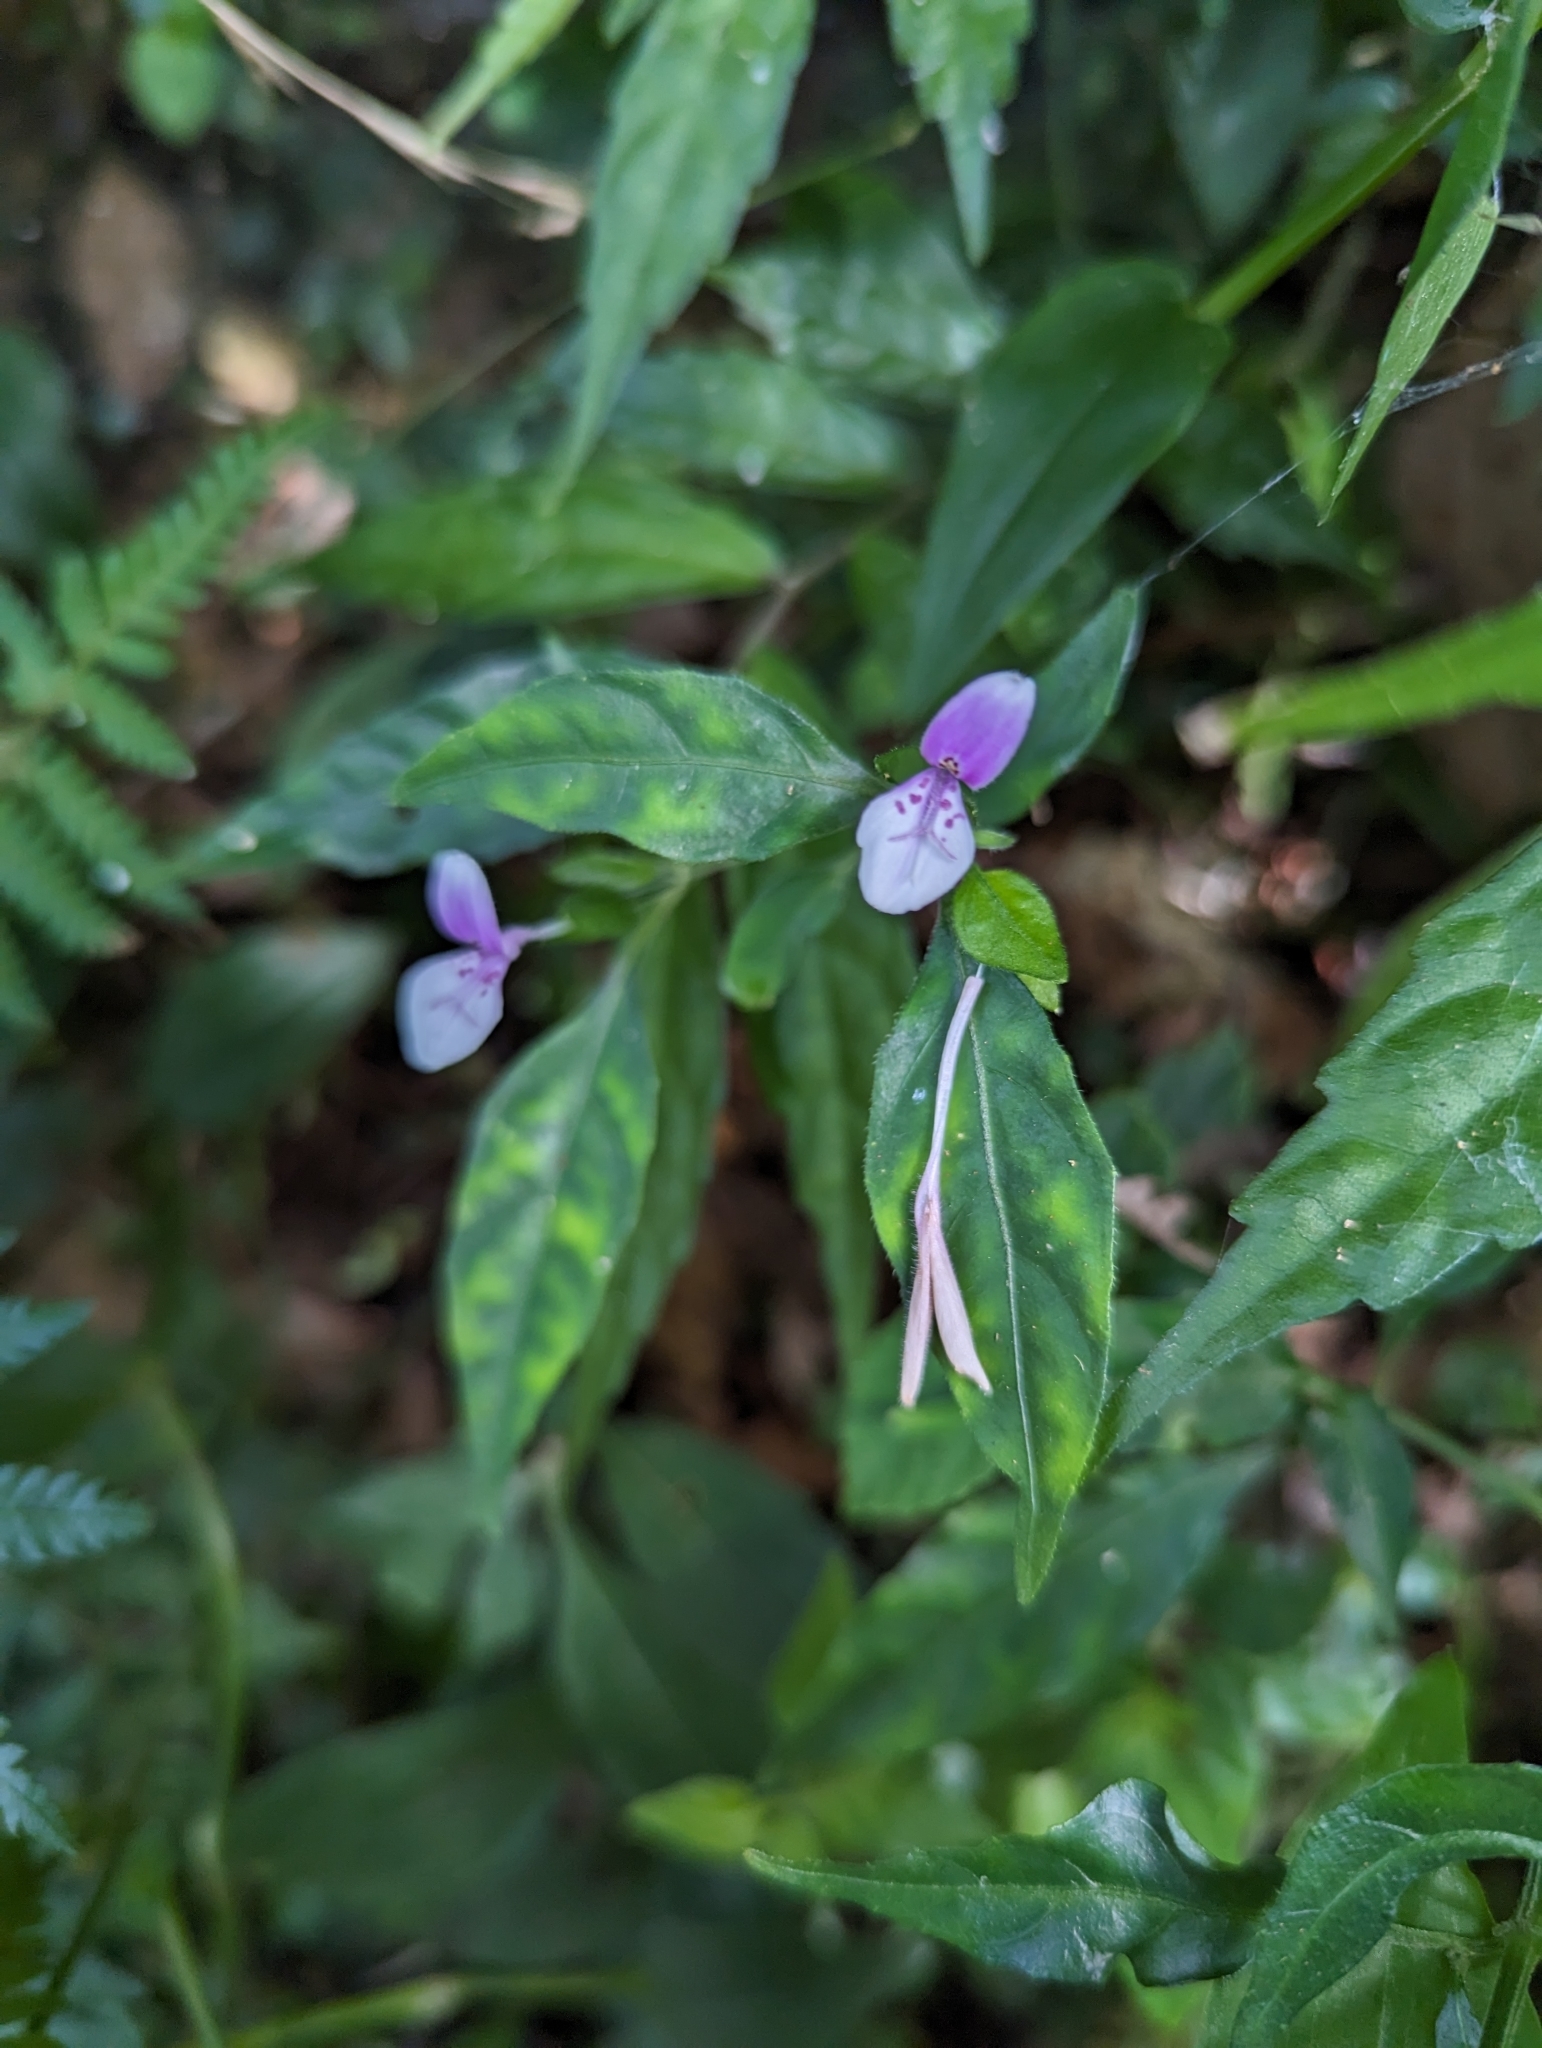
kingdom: Plantae
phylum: Tracheophyta
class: Magnoliopsida
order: Lamiales
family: Acanthaceae
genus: Dicliptera
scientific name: Dicliptera japonica
